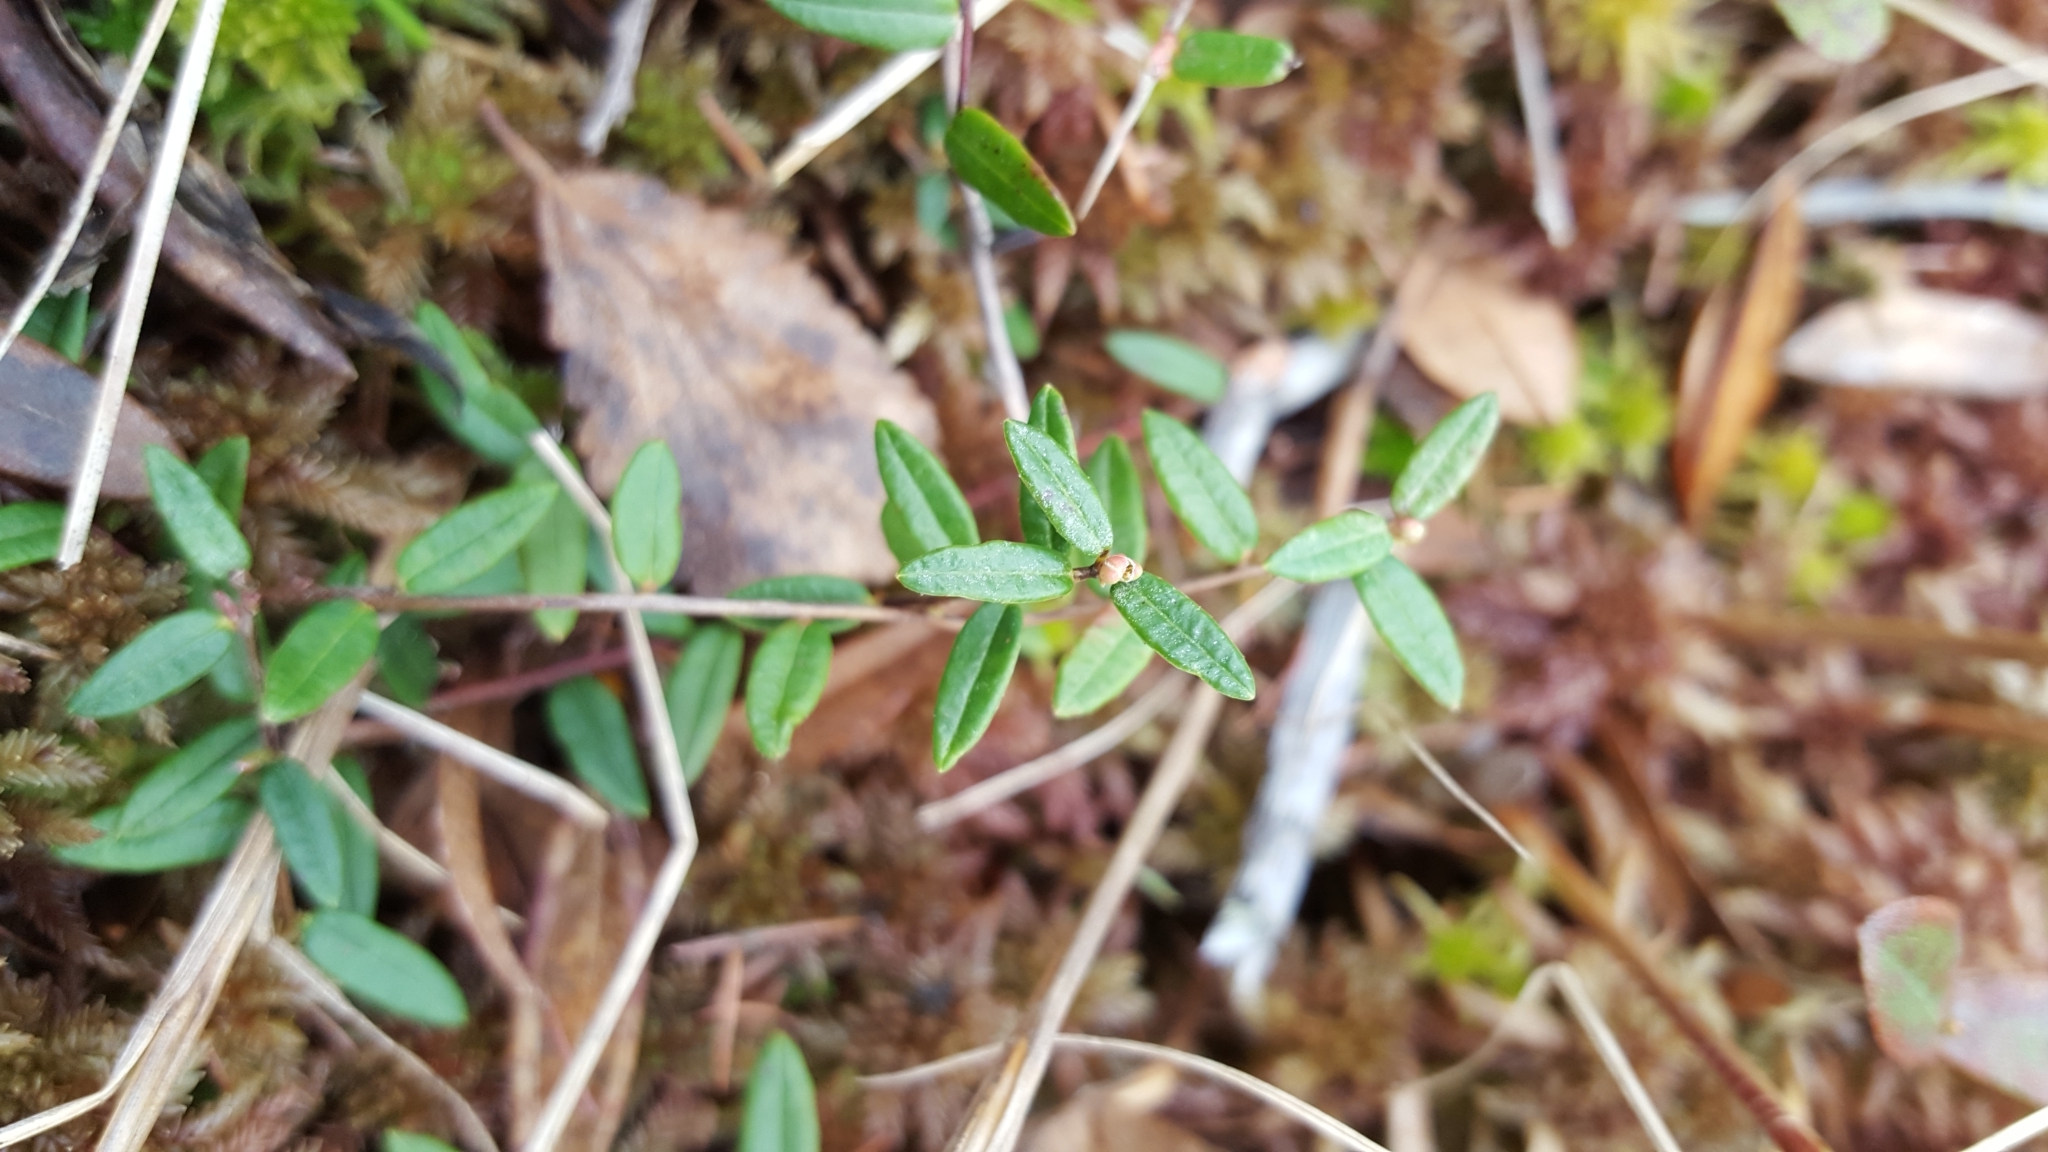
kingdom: Plantae
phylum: Tracheophyta
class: Magnoliopsida
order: Ericales
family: Ericaceae
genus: Vaccinium
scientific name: Vaccinium oxycoccos
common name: Cranberry
